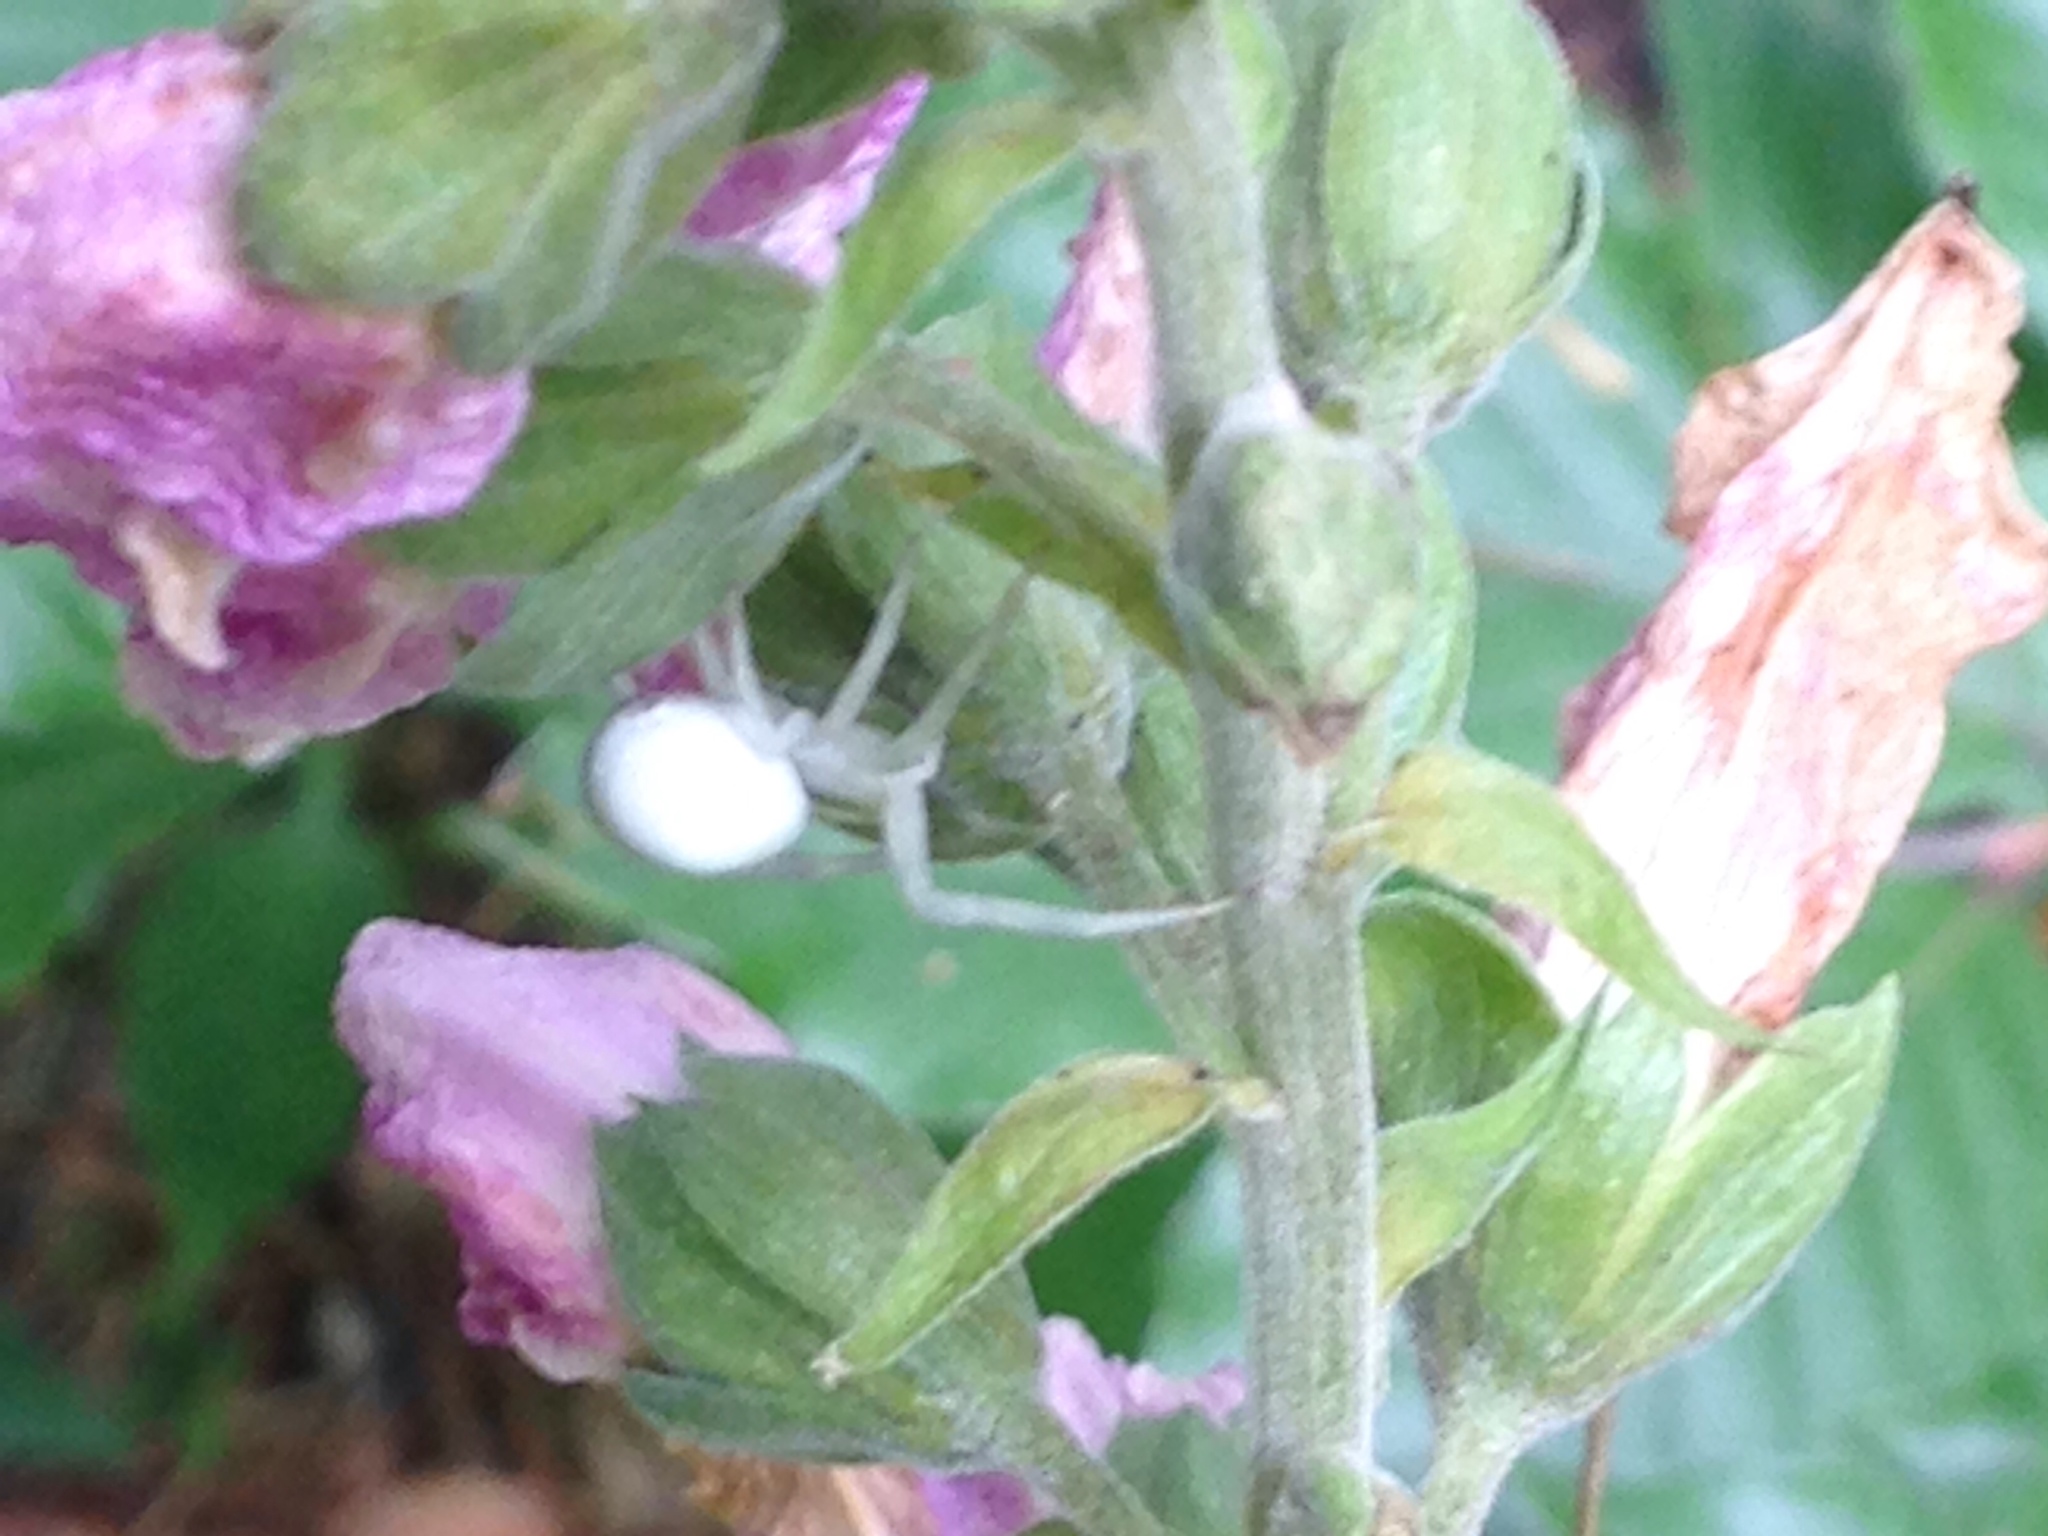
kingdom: Animalia
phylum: Arthropoda
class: Arachnida
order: Araneae
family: Thomisidae
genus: Misumena
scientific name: Misumena vatia
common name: Goldenrod crab spider
